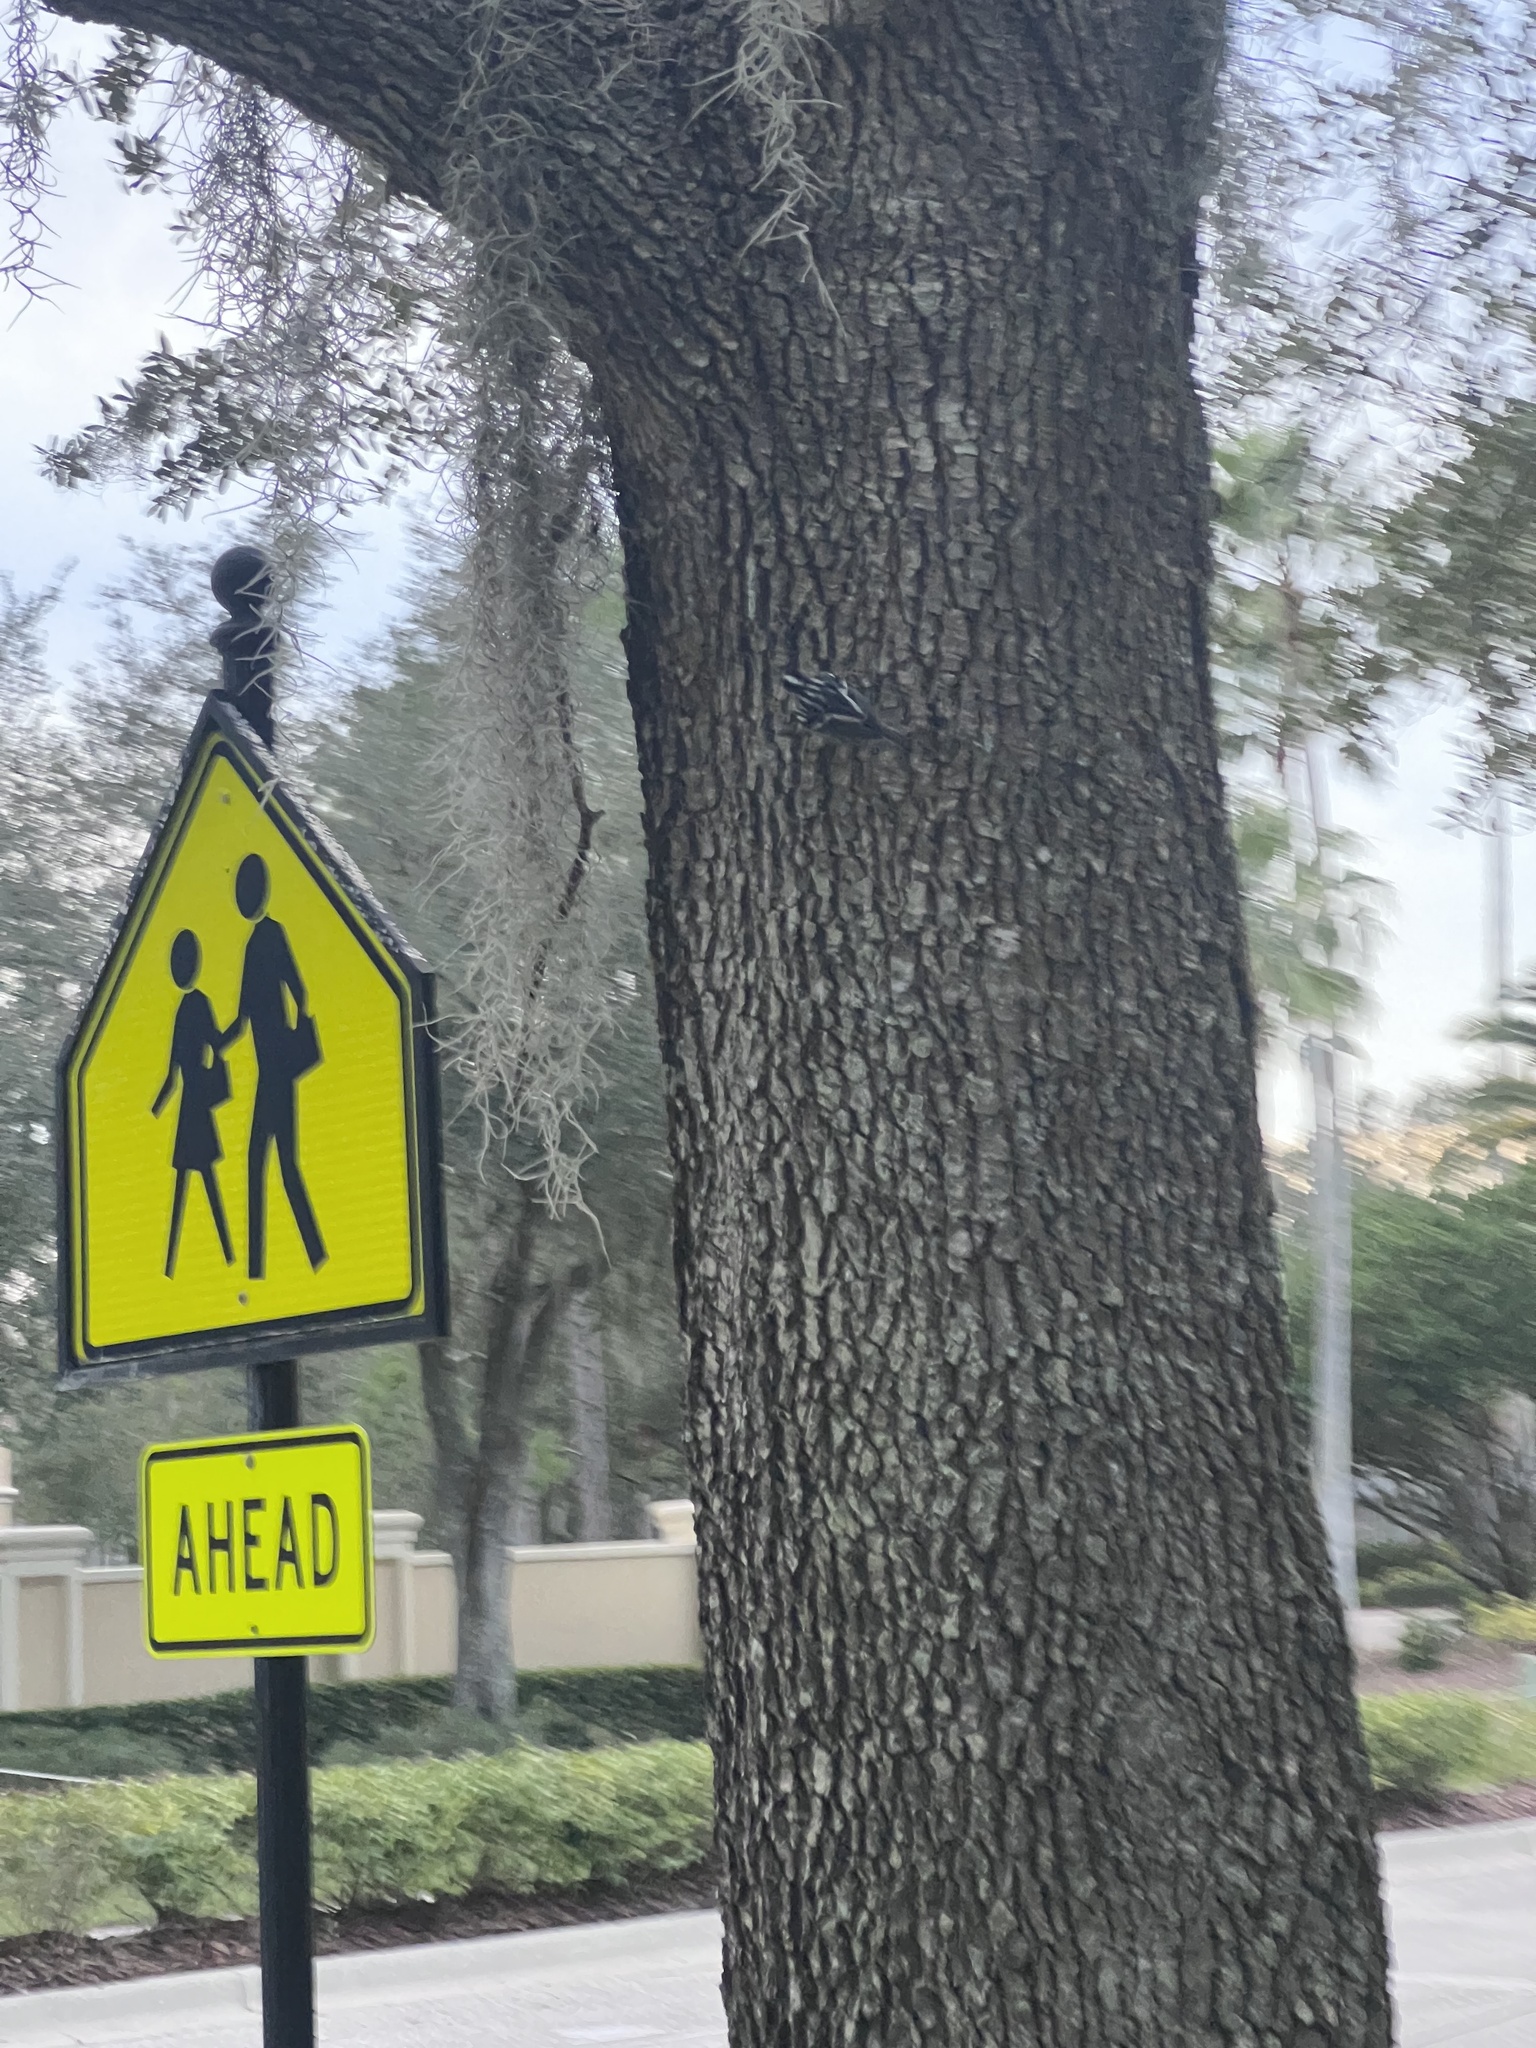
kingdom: Animalia
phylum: Chordata
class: Aves
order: Passeriformes
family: Parulidae
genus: Mniotilta
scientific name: Mniotilta varia
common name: Black-and-white warbler
